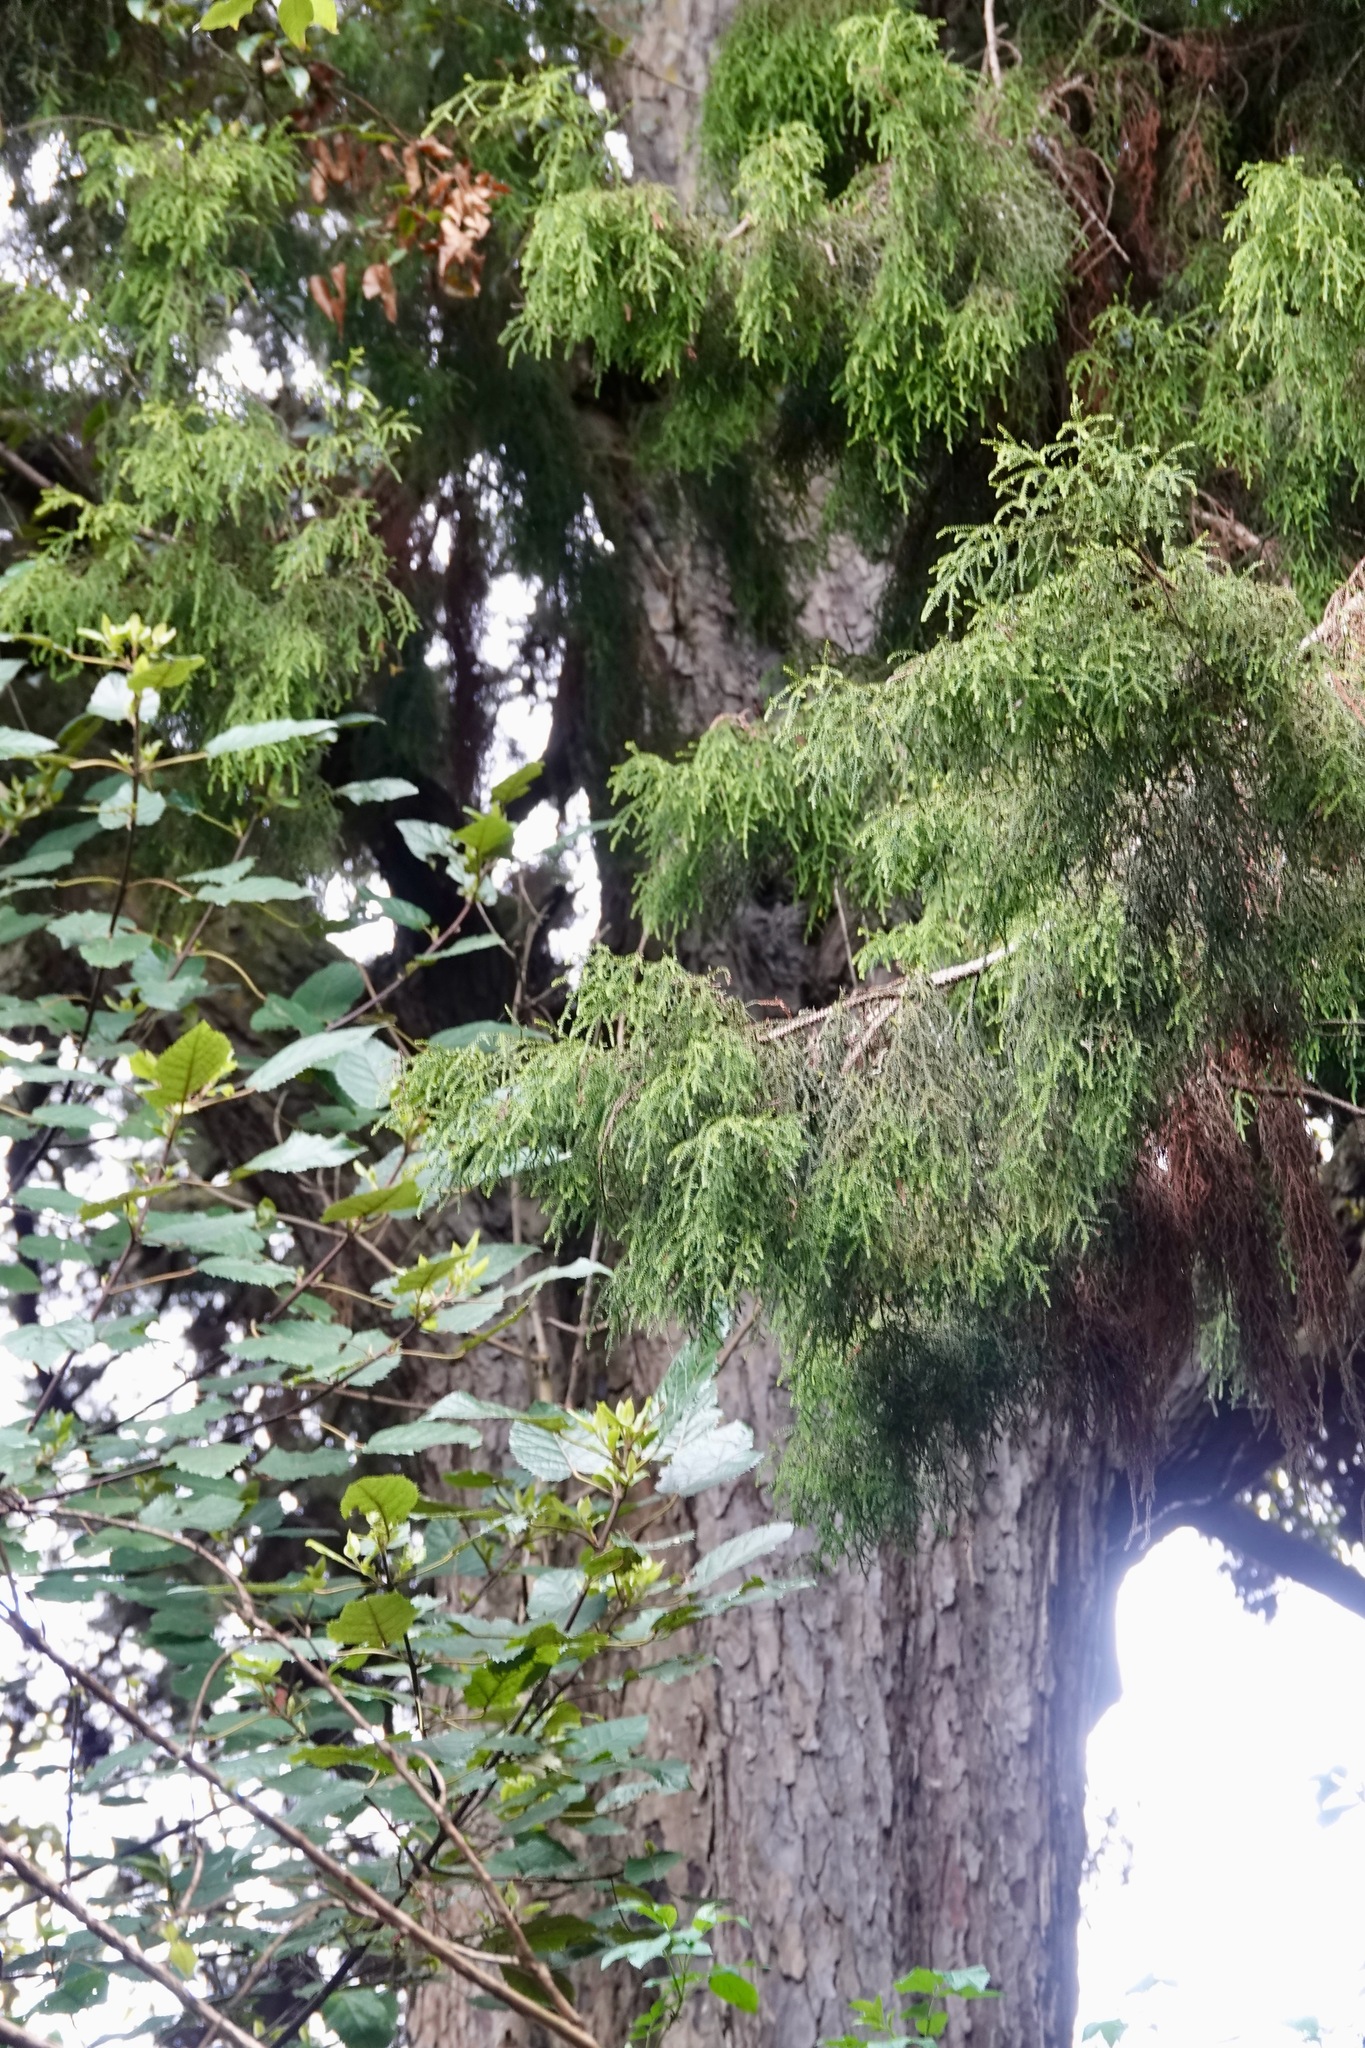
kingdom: Plantae
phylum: Tracheophyta
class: Pinopsida
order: Pinales
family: Podocarpaceae
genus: Dacrydium
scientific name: Dacrydium cupressinum
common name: Red pine
